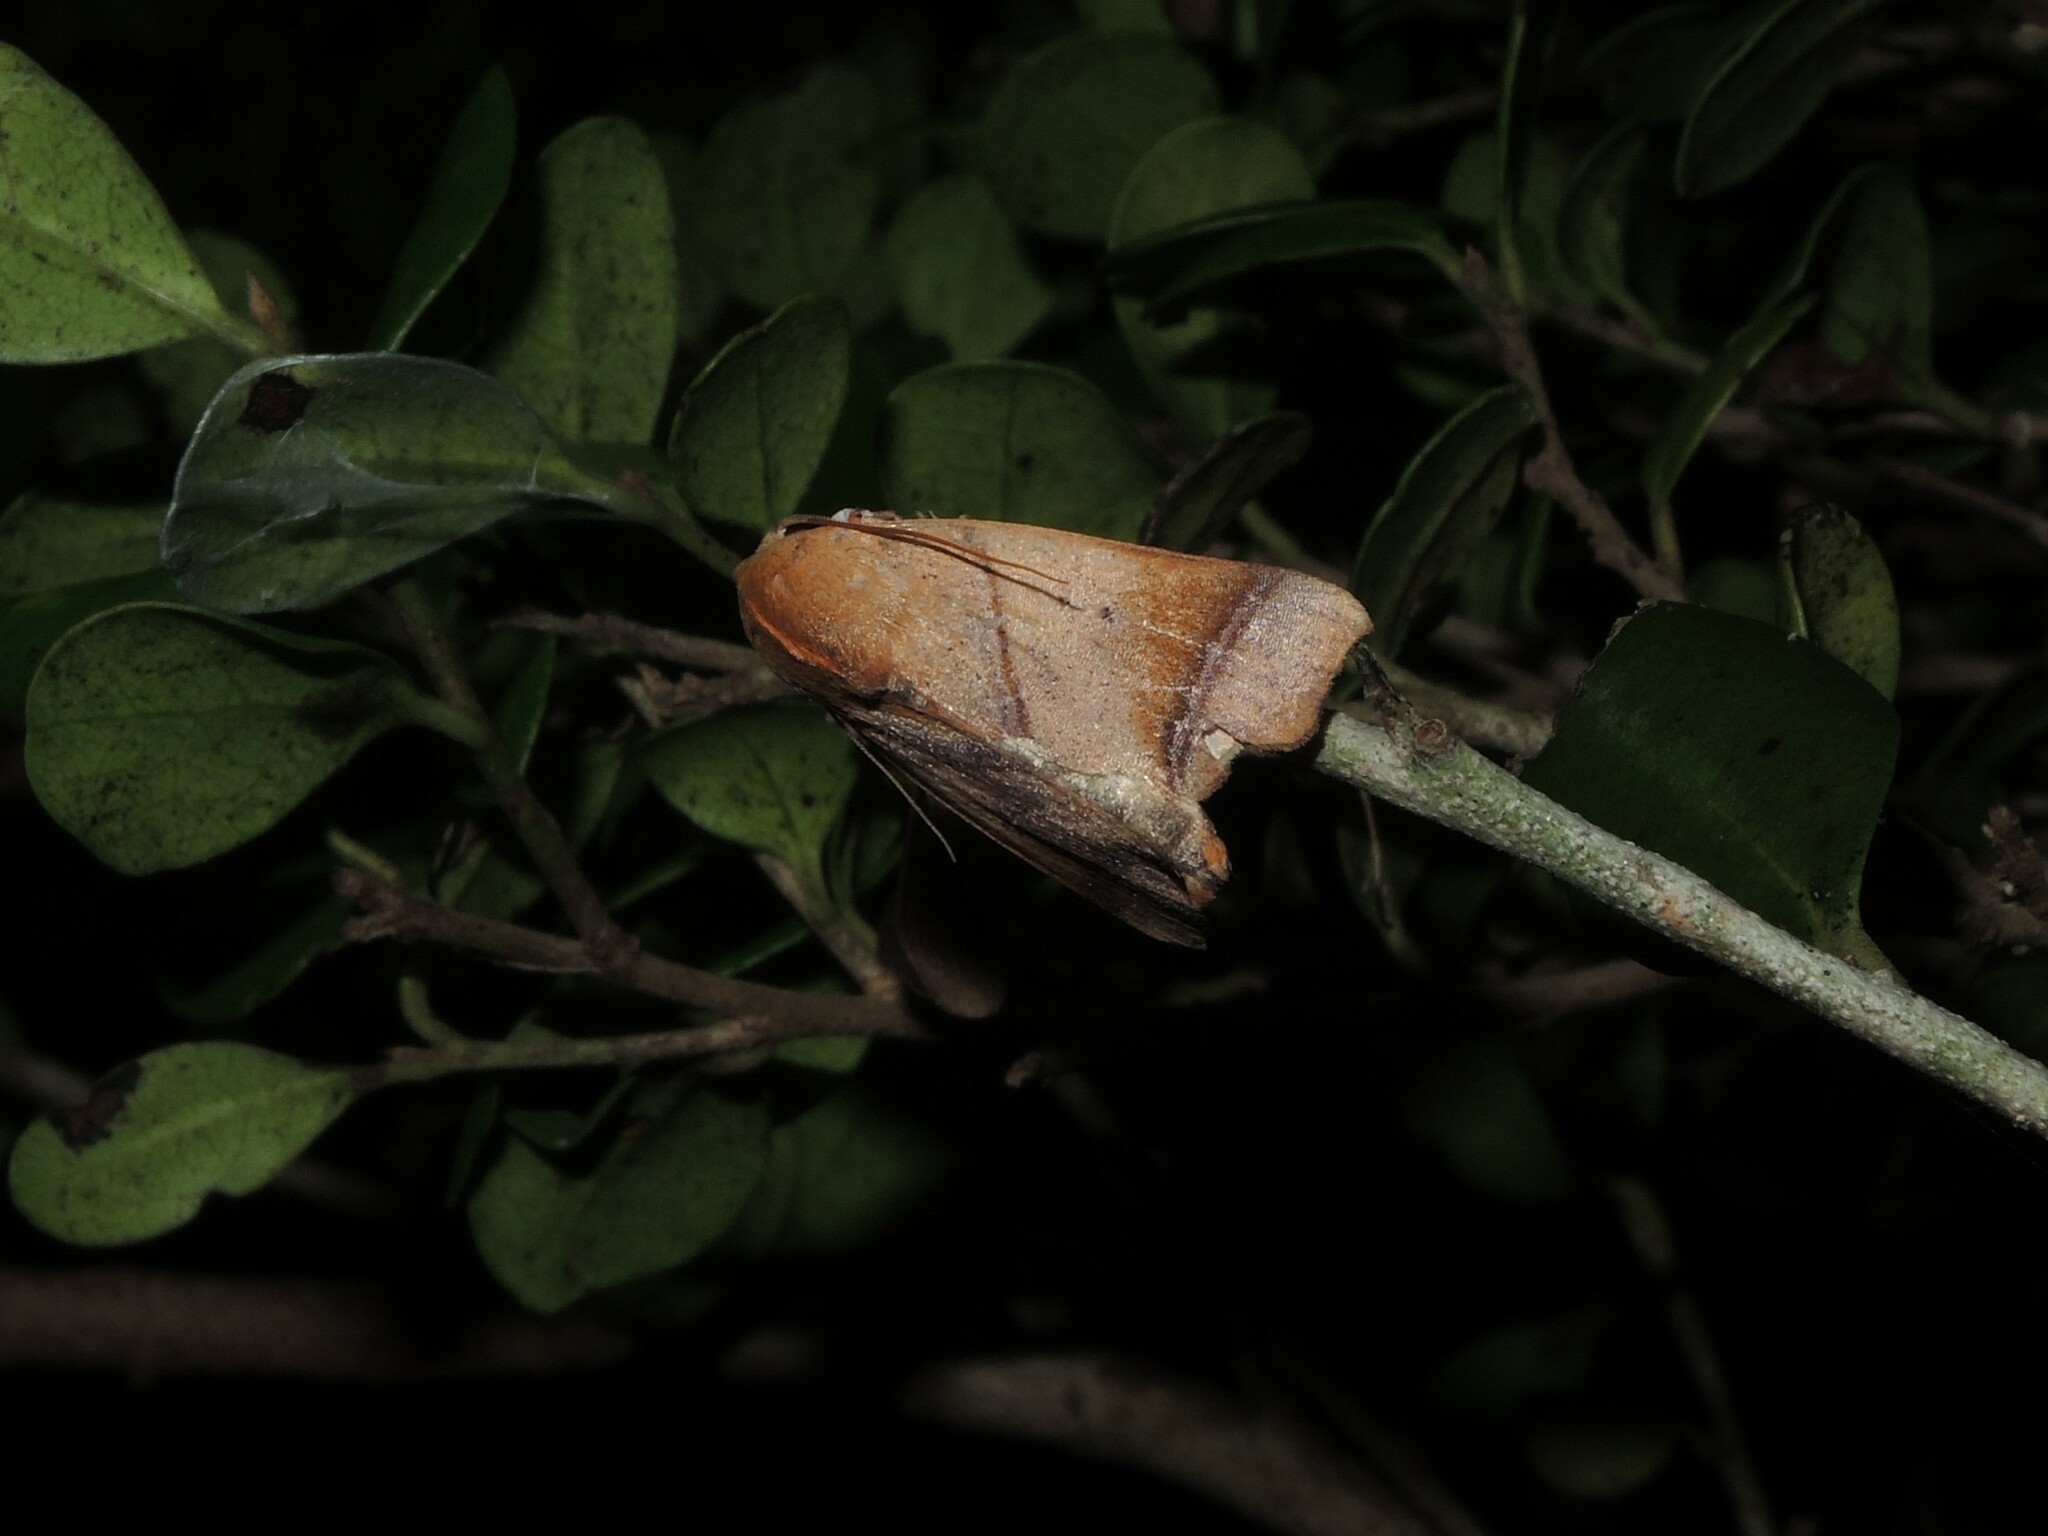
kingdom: Animalia
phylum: Arthropoda
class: Insecta
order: Lepidoptera
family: Nolidae
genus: Carea
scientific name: Carea angulata
